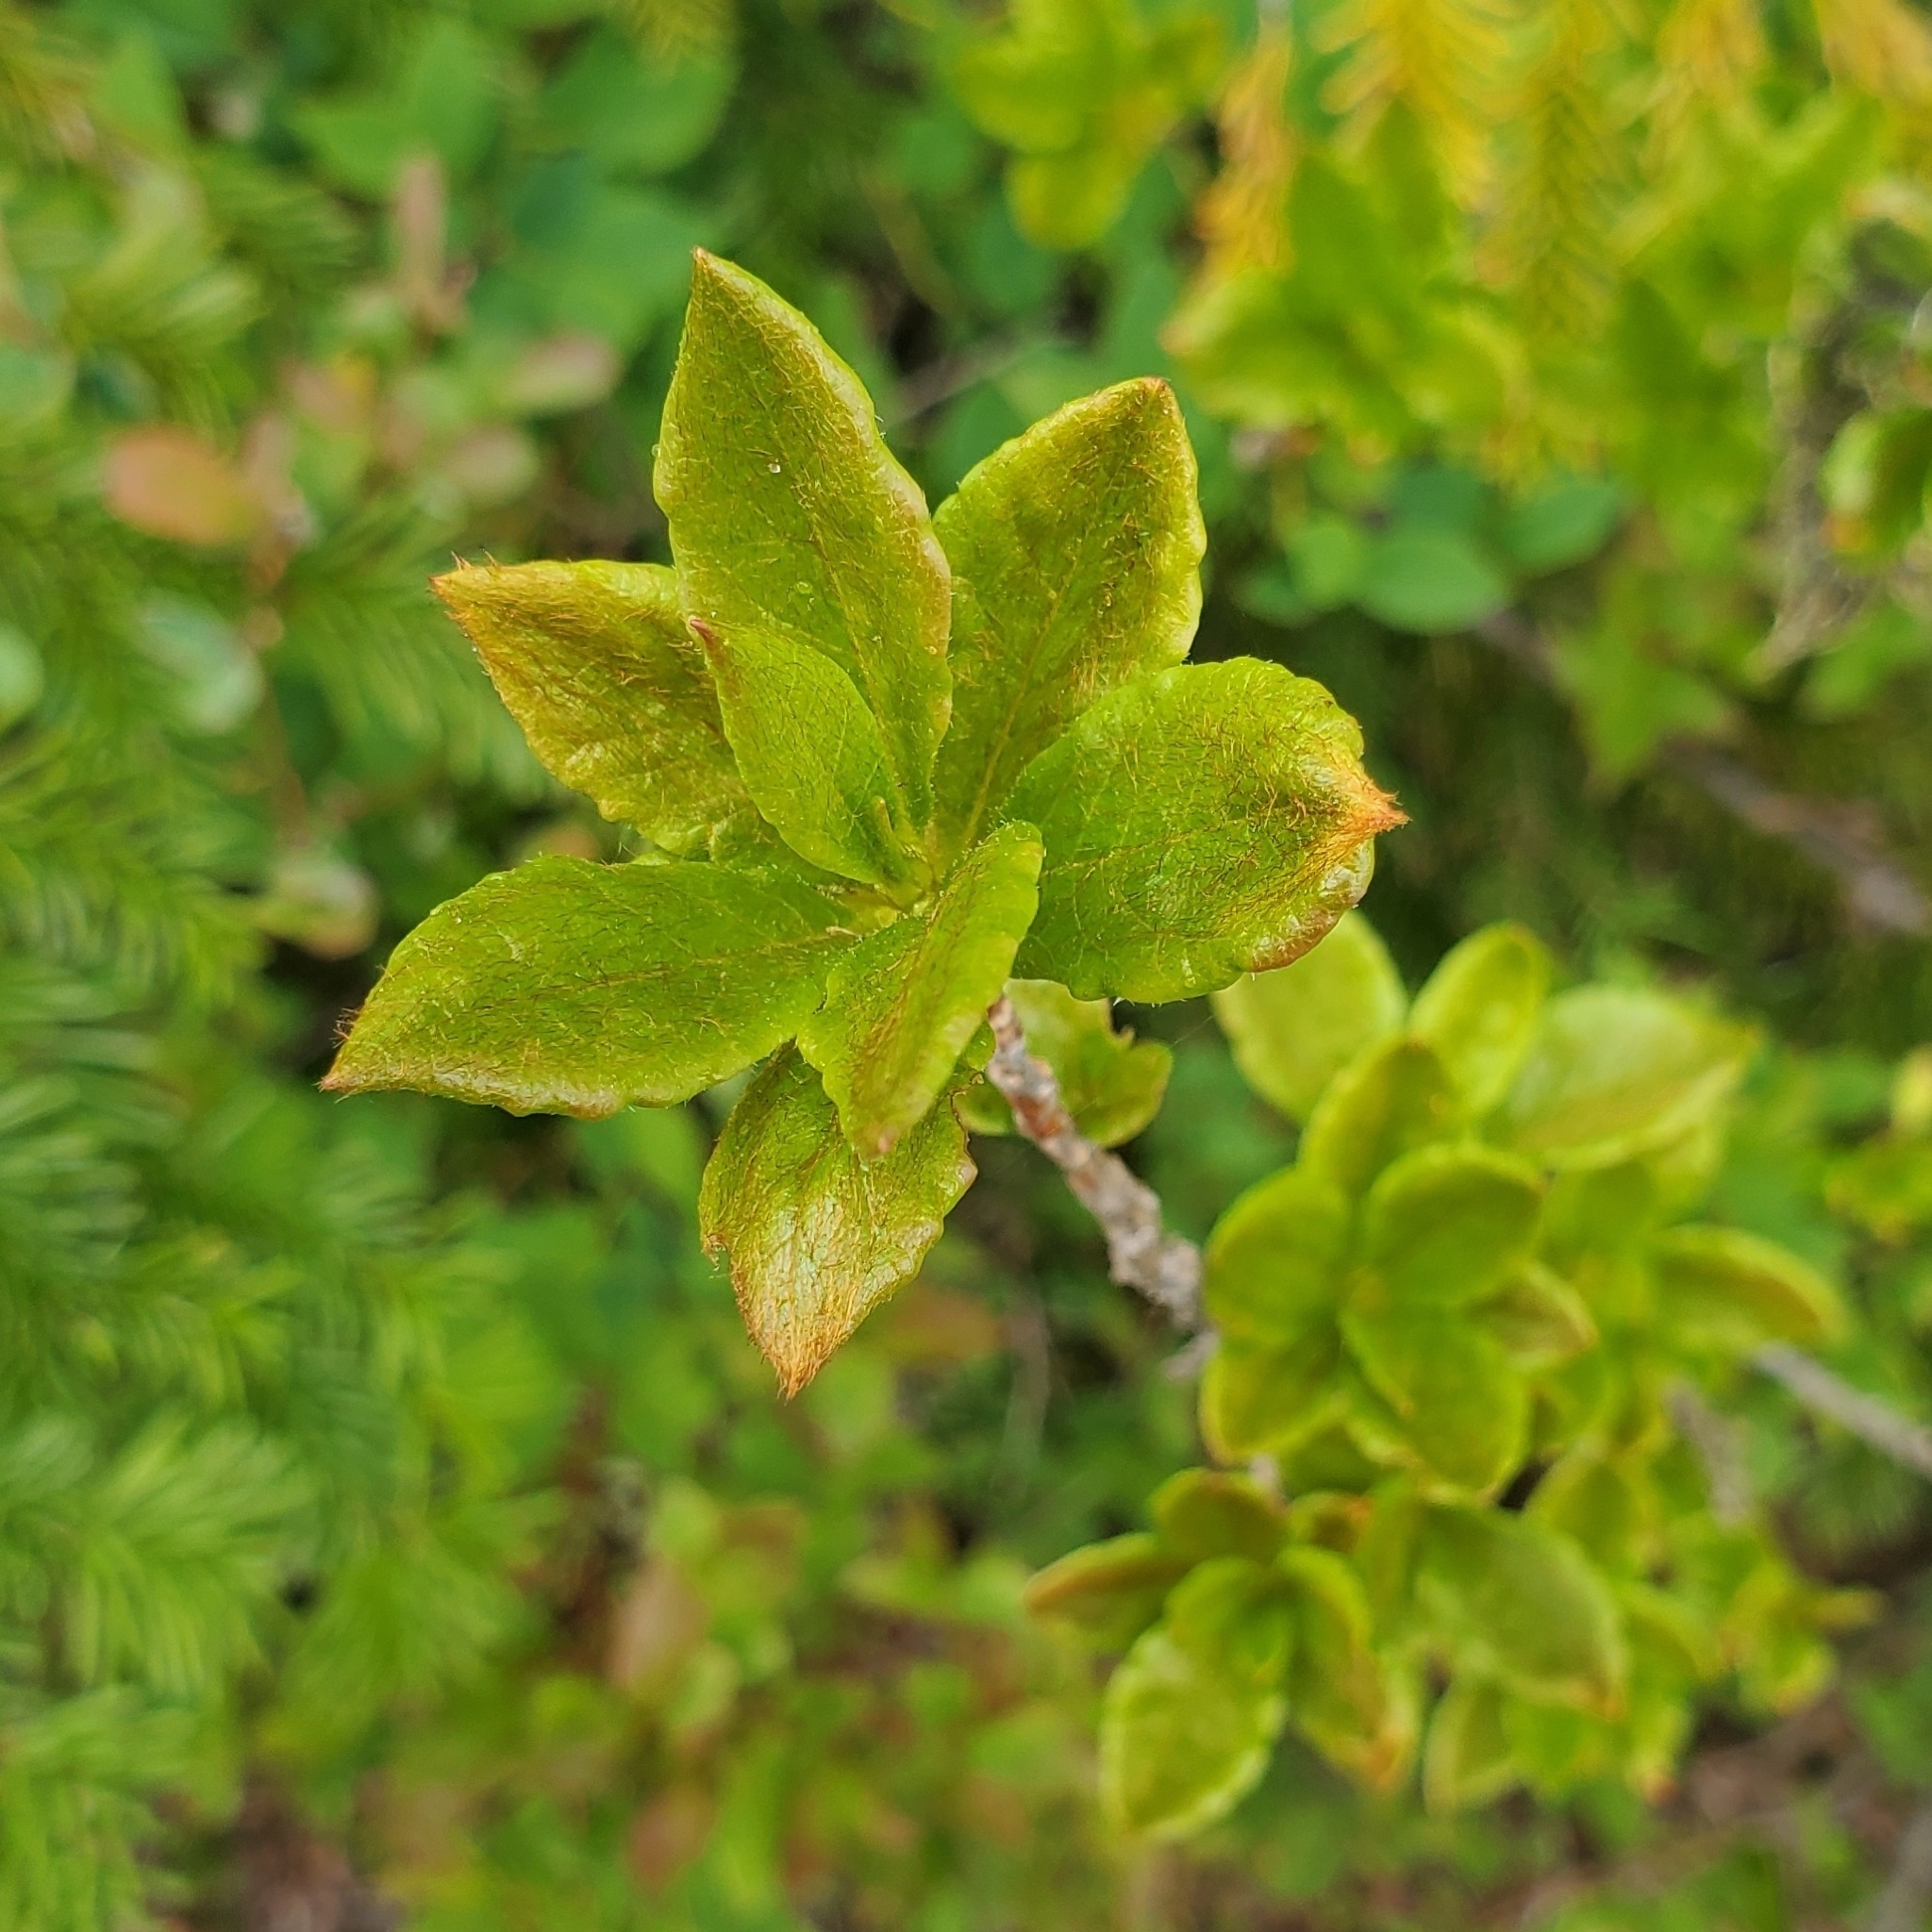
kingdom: Plantae
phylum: Tracheophyta
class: Magnoliopsida
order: Ericales
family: Ericaceae
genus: Rhododendron
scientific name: Rhododendron albiflorum
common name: White rhododendron
